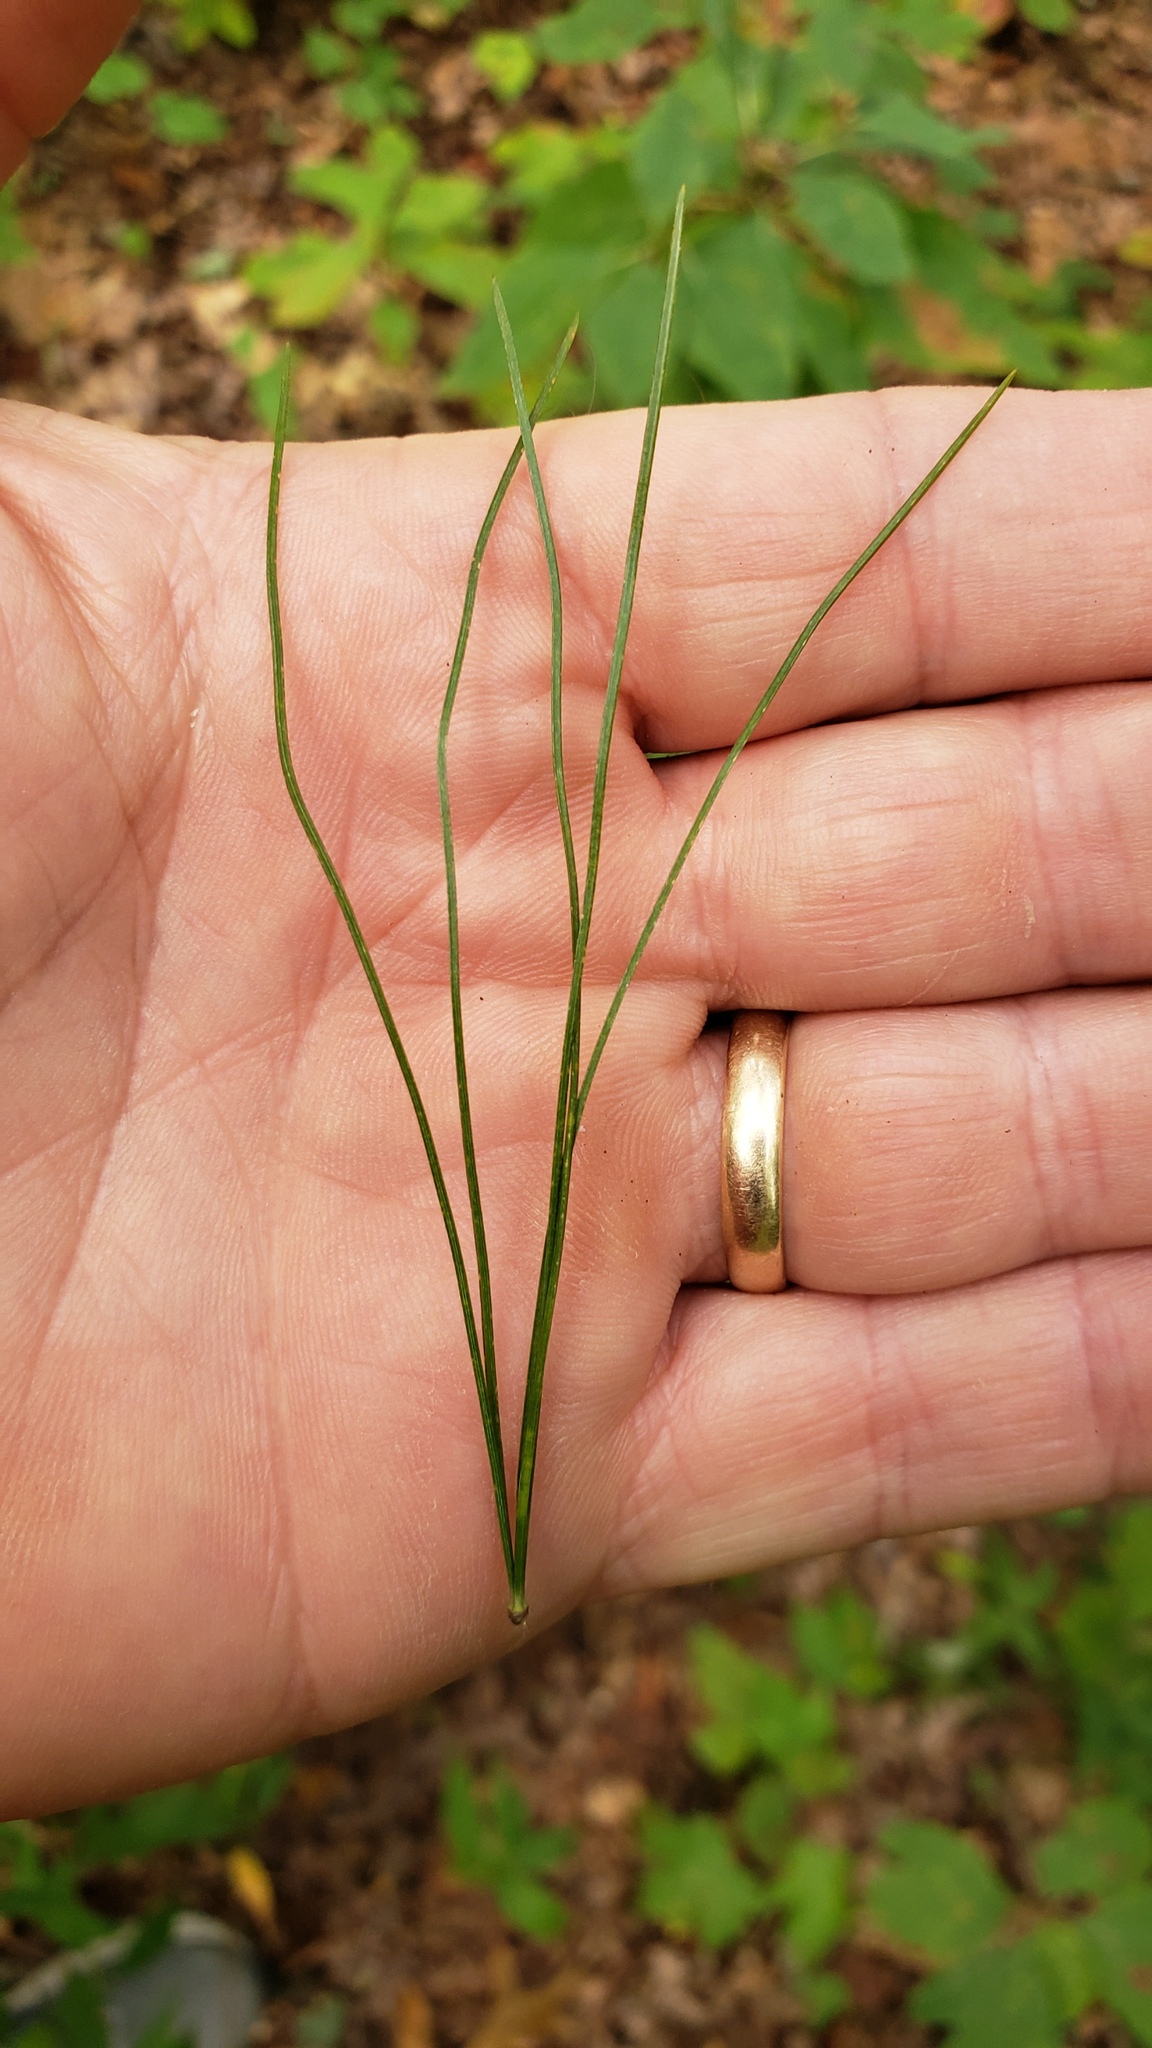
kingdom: Plantae
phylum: Tracheophyta
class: Pinopsida
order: Pinales
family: Pinaceae
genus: Pinus
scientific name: Pinus strobus
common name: Weymouth pine
